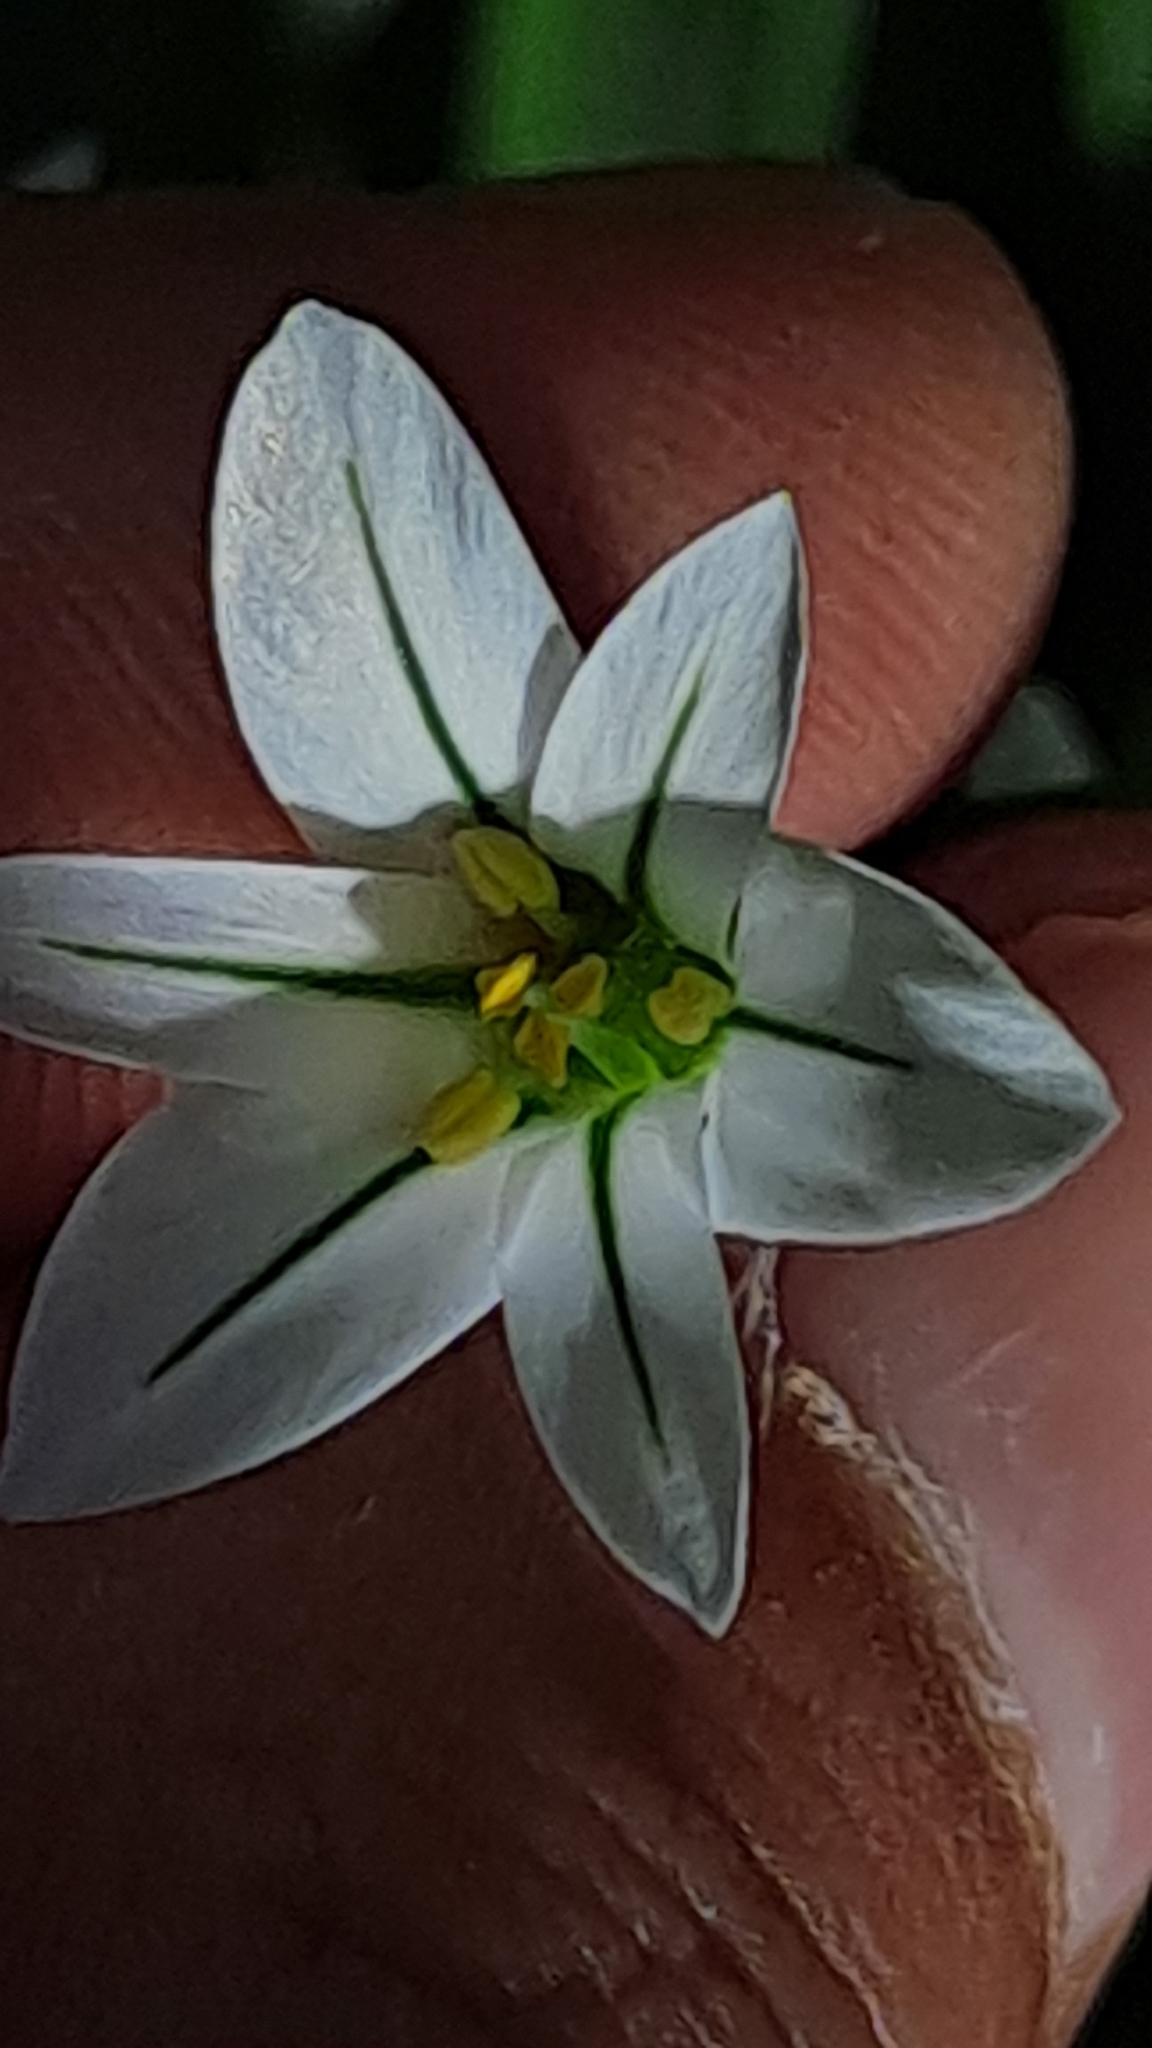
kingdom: Plantae
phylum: Tracheophyta
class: Liliopsida
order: Asparagales
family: Amaryllidaceae
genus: Allium
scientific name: Allium triquetrum
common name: Three-cornered garlic
